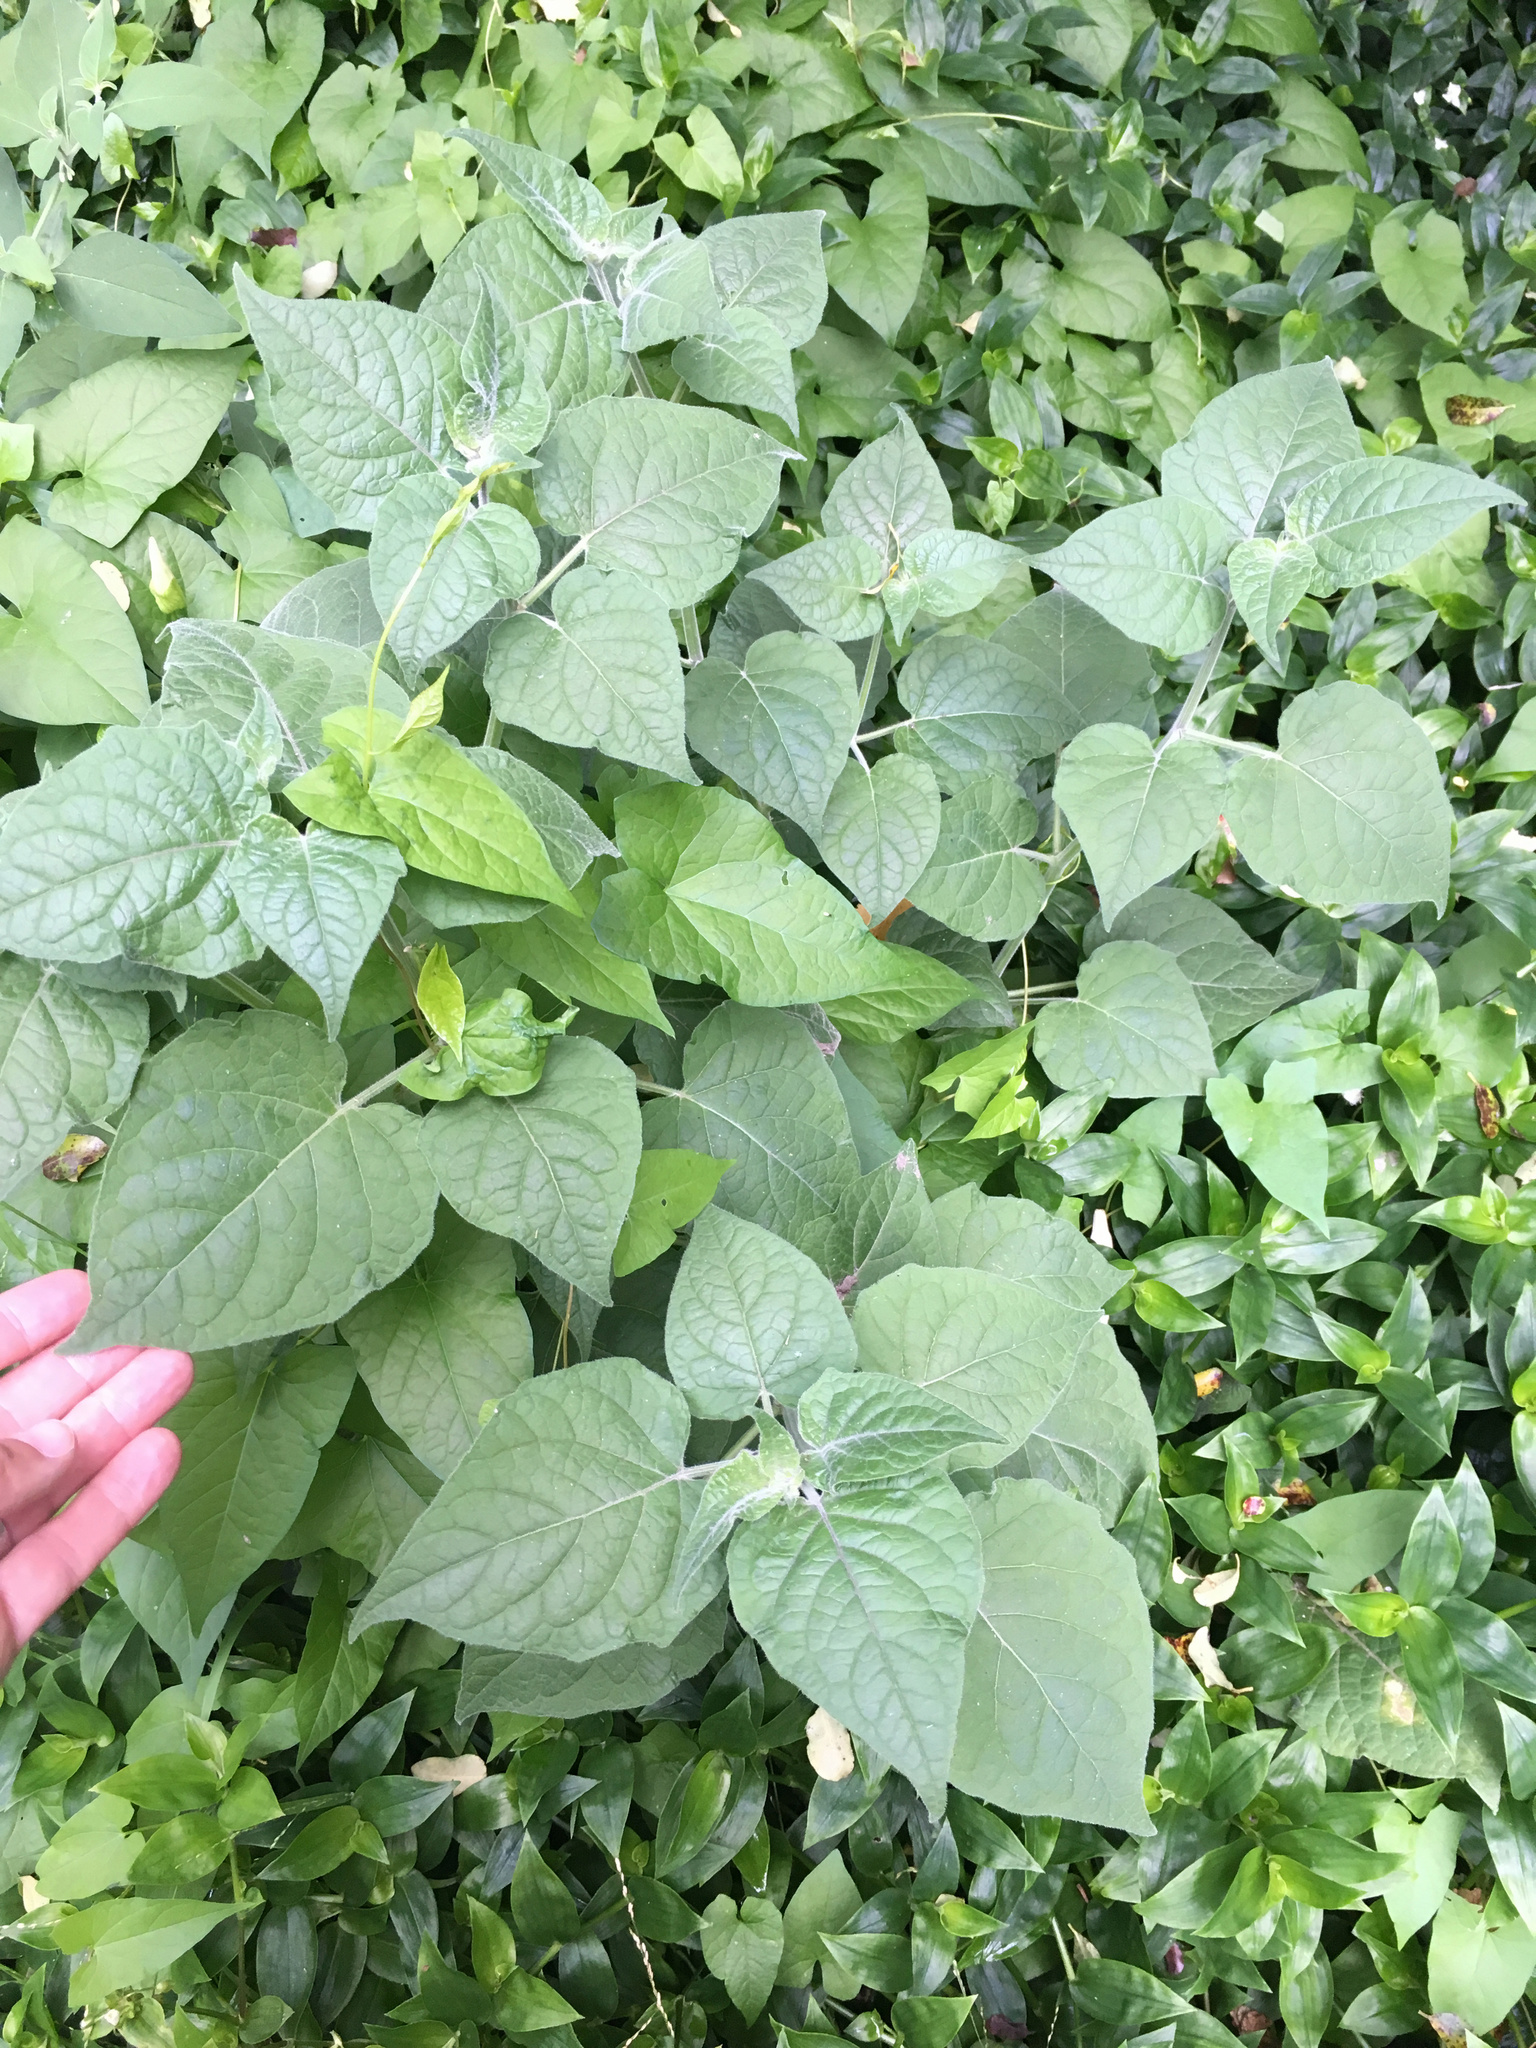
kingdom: Plantae
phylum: Tracheophyta
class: Magnoliopsida
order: Solanales
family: Solanaceae
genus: Physalis
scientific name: Physalis peruviana
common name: Cape-gooseberry
